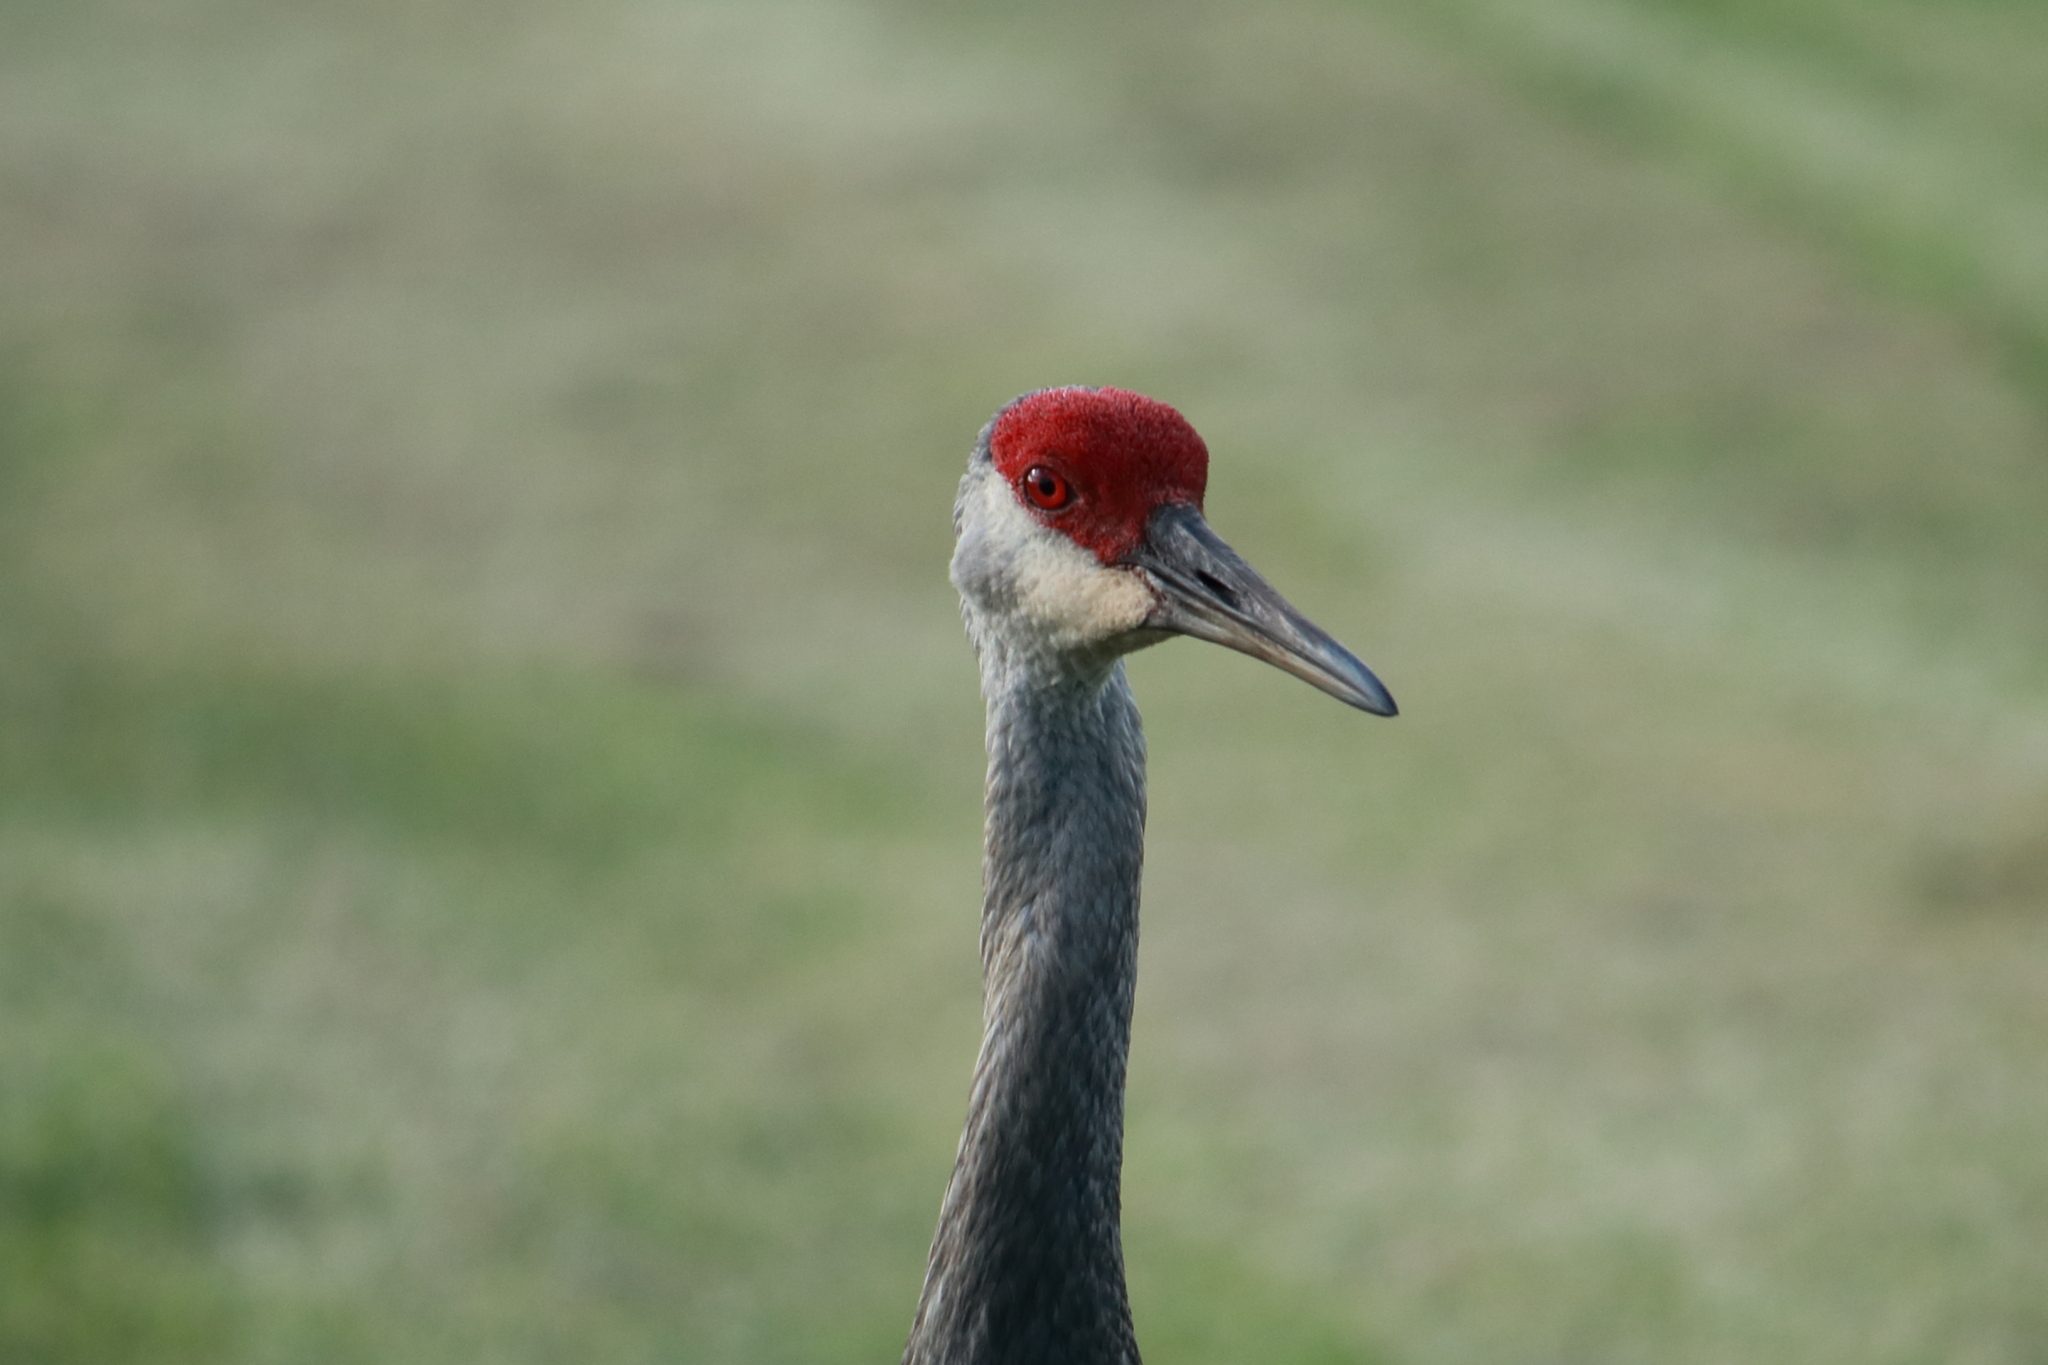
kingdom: Animalia
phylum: Chordata
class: Aves
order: Gruiformes
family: Gruidae
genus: Grus
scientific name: Grus canadensis
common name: Sandhill crane
